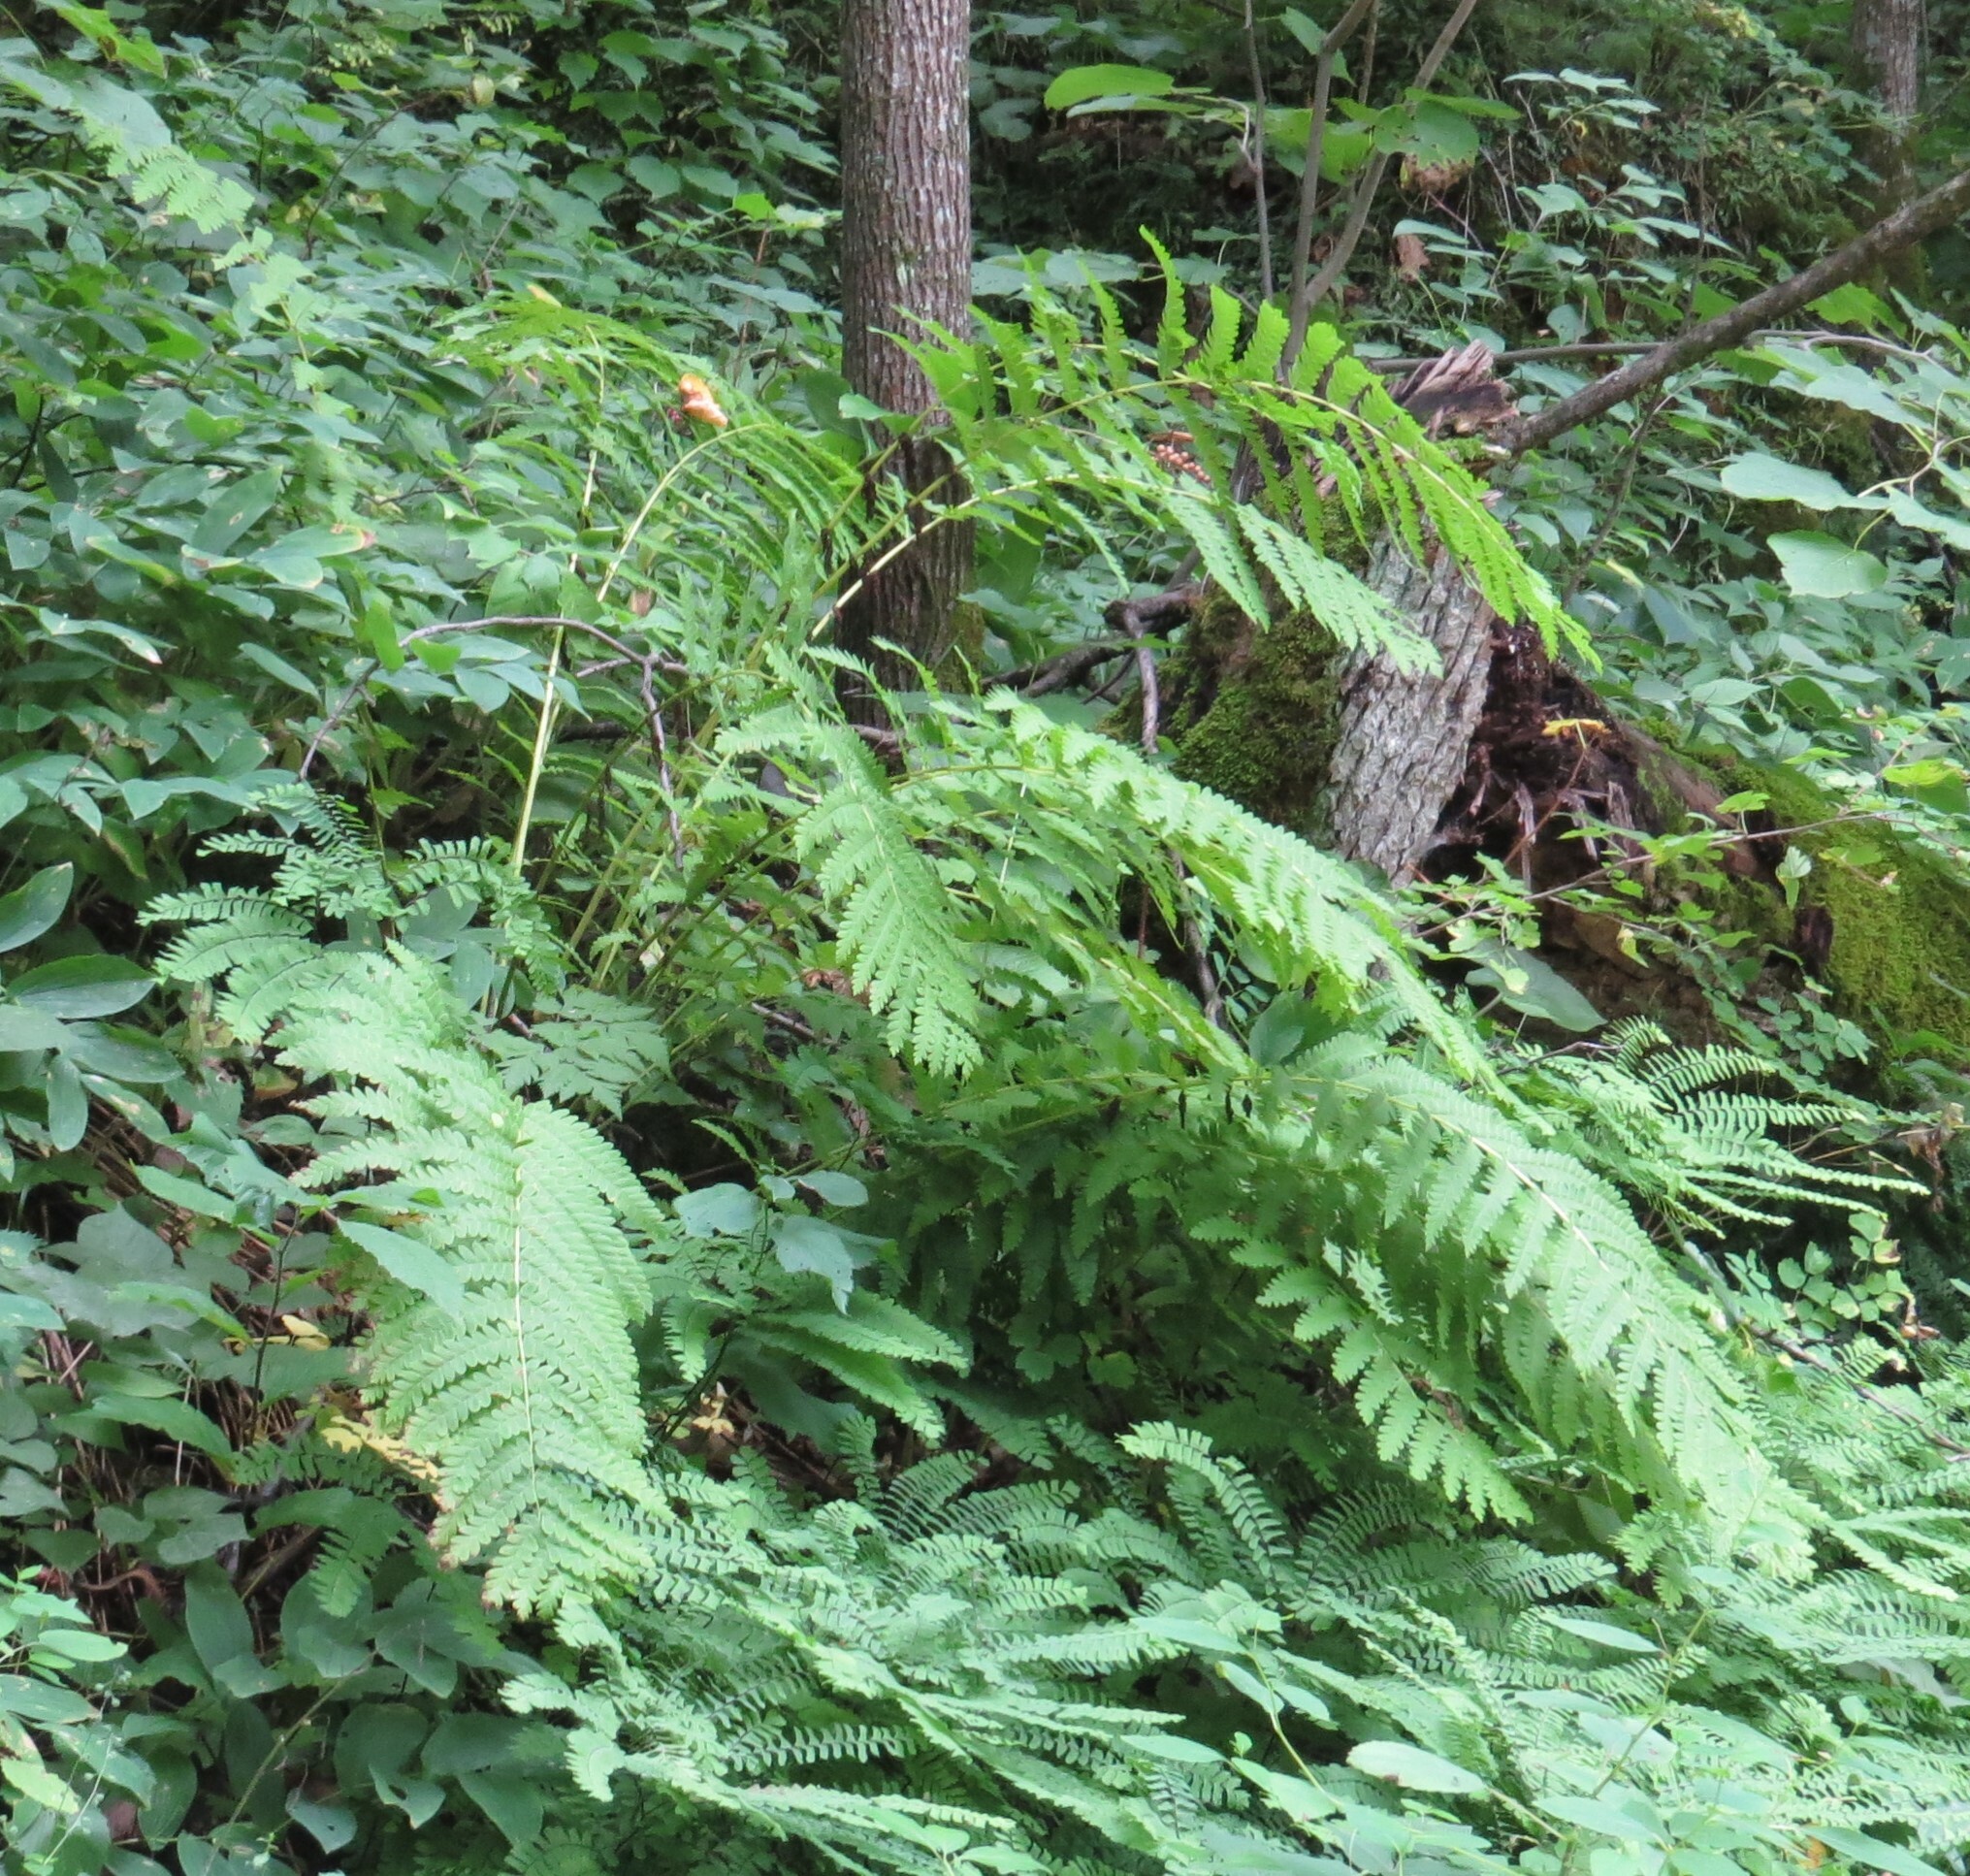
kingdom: Plantae
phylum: Tracheophyta
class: Polypodiopsida
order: Osmundales
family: Osmundaceae
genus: Claytosmunda
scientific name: Claytosmunda claytoniana
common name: Clayton's fern
